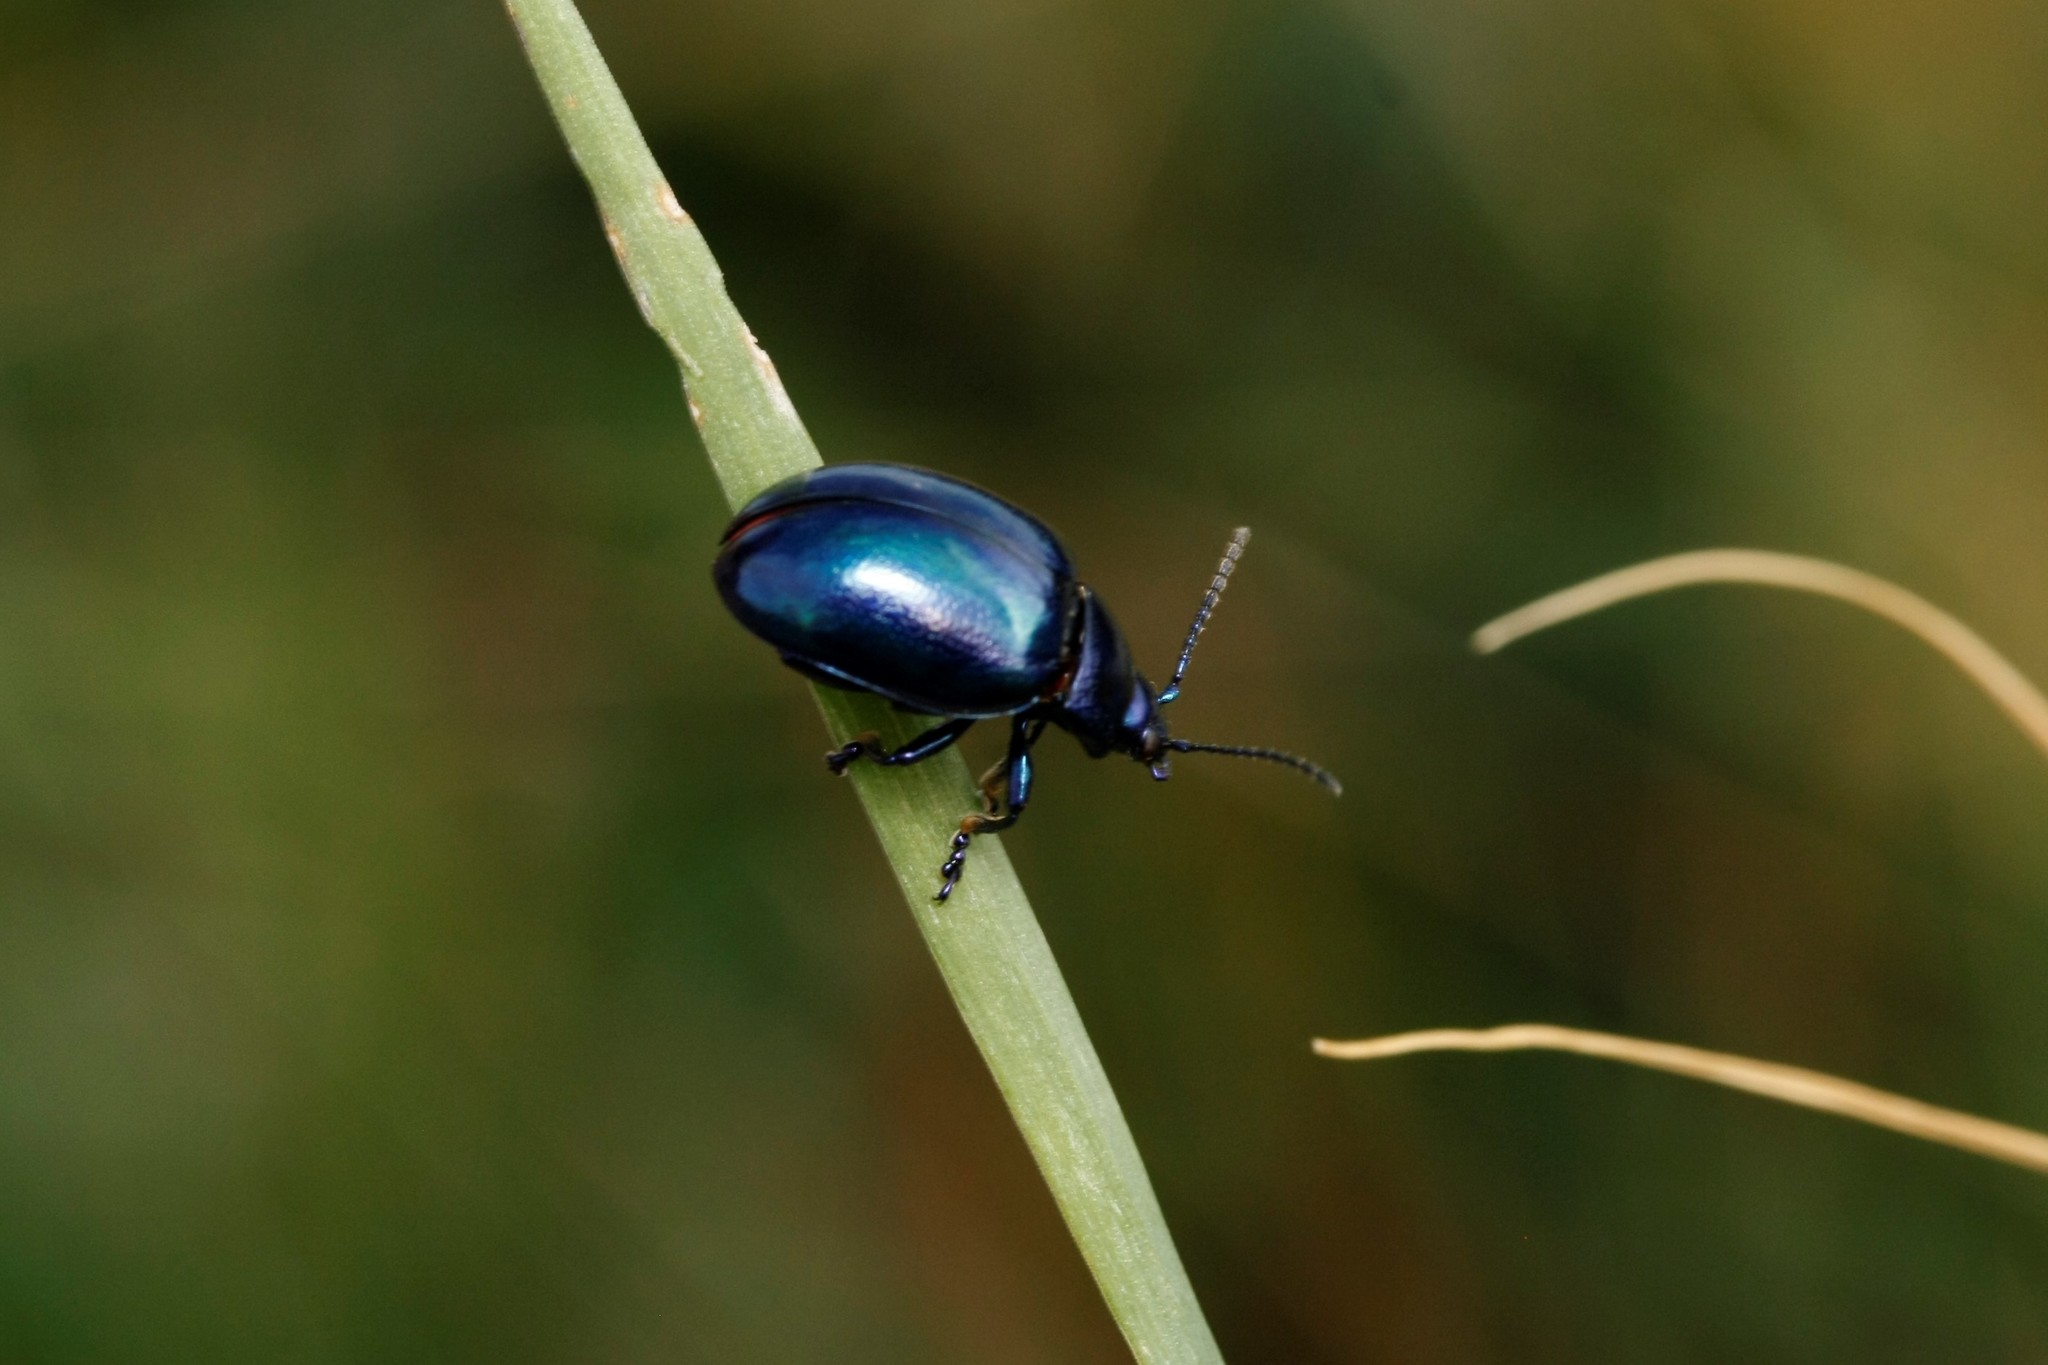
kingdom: Animalia
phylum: Arthropoda
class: Insecta
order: Coleoptera
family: Chrysomelidae
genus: Chrysolina
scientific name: Chrysolina coerulans
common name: Blue mint beetle
